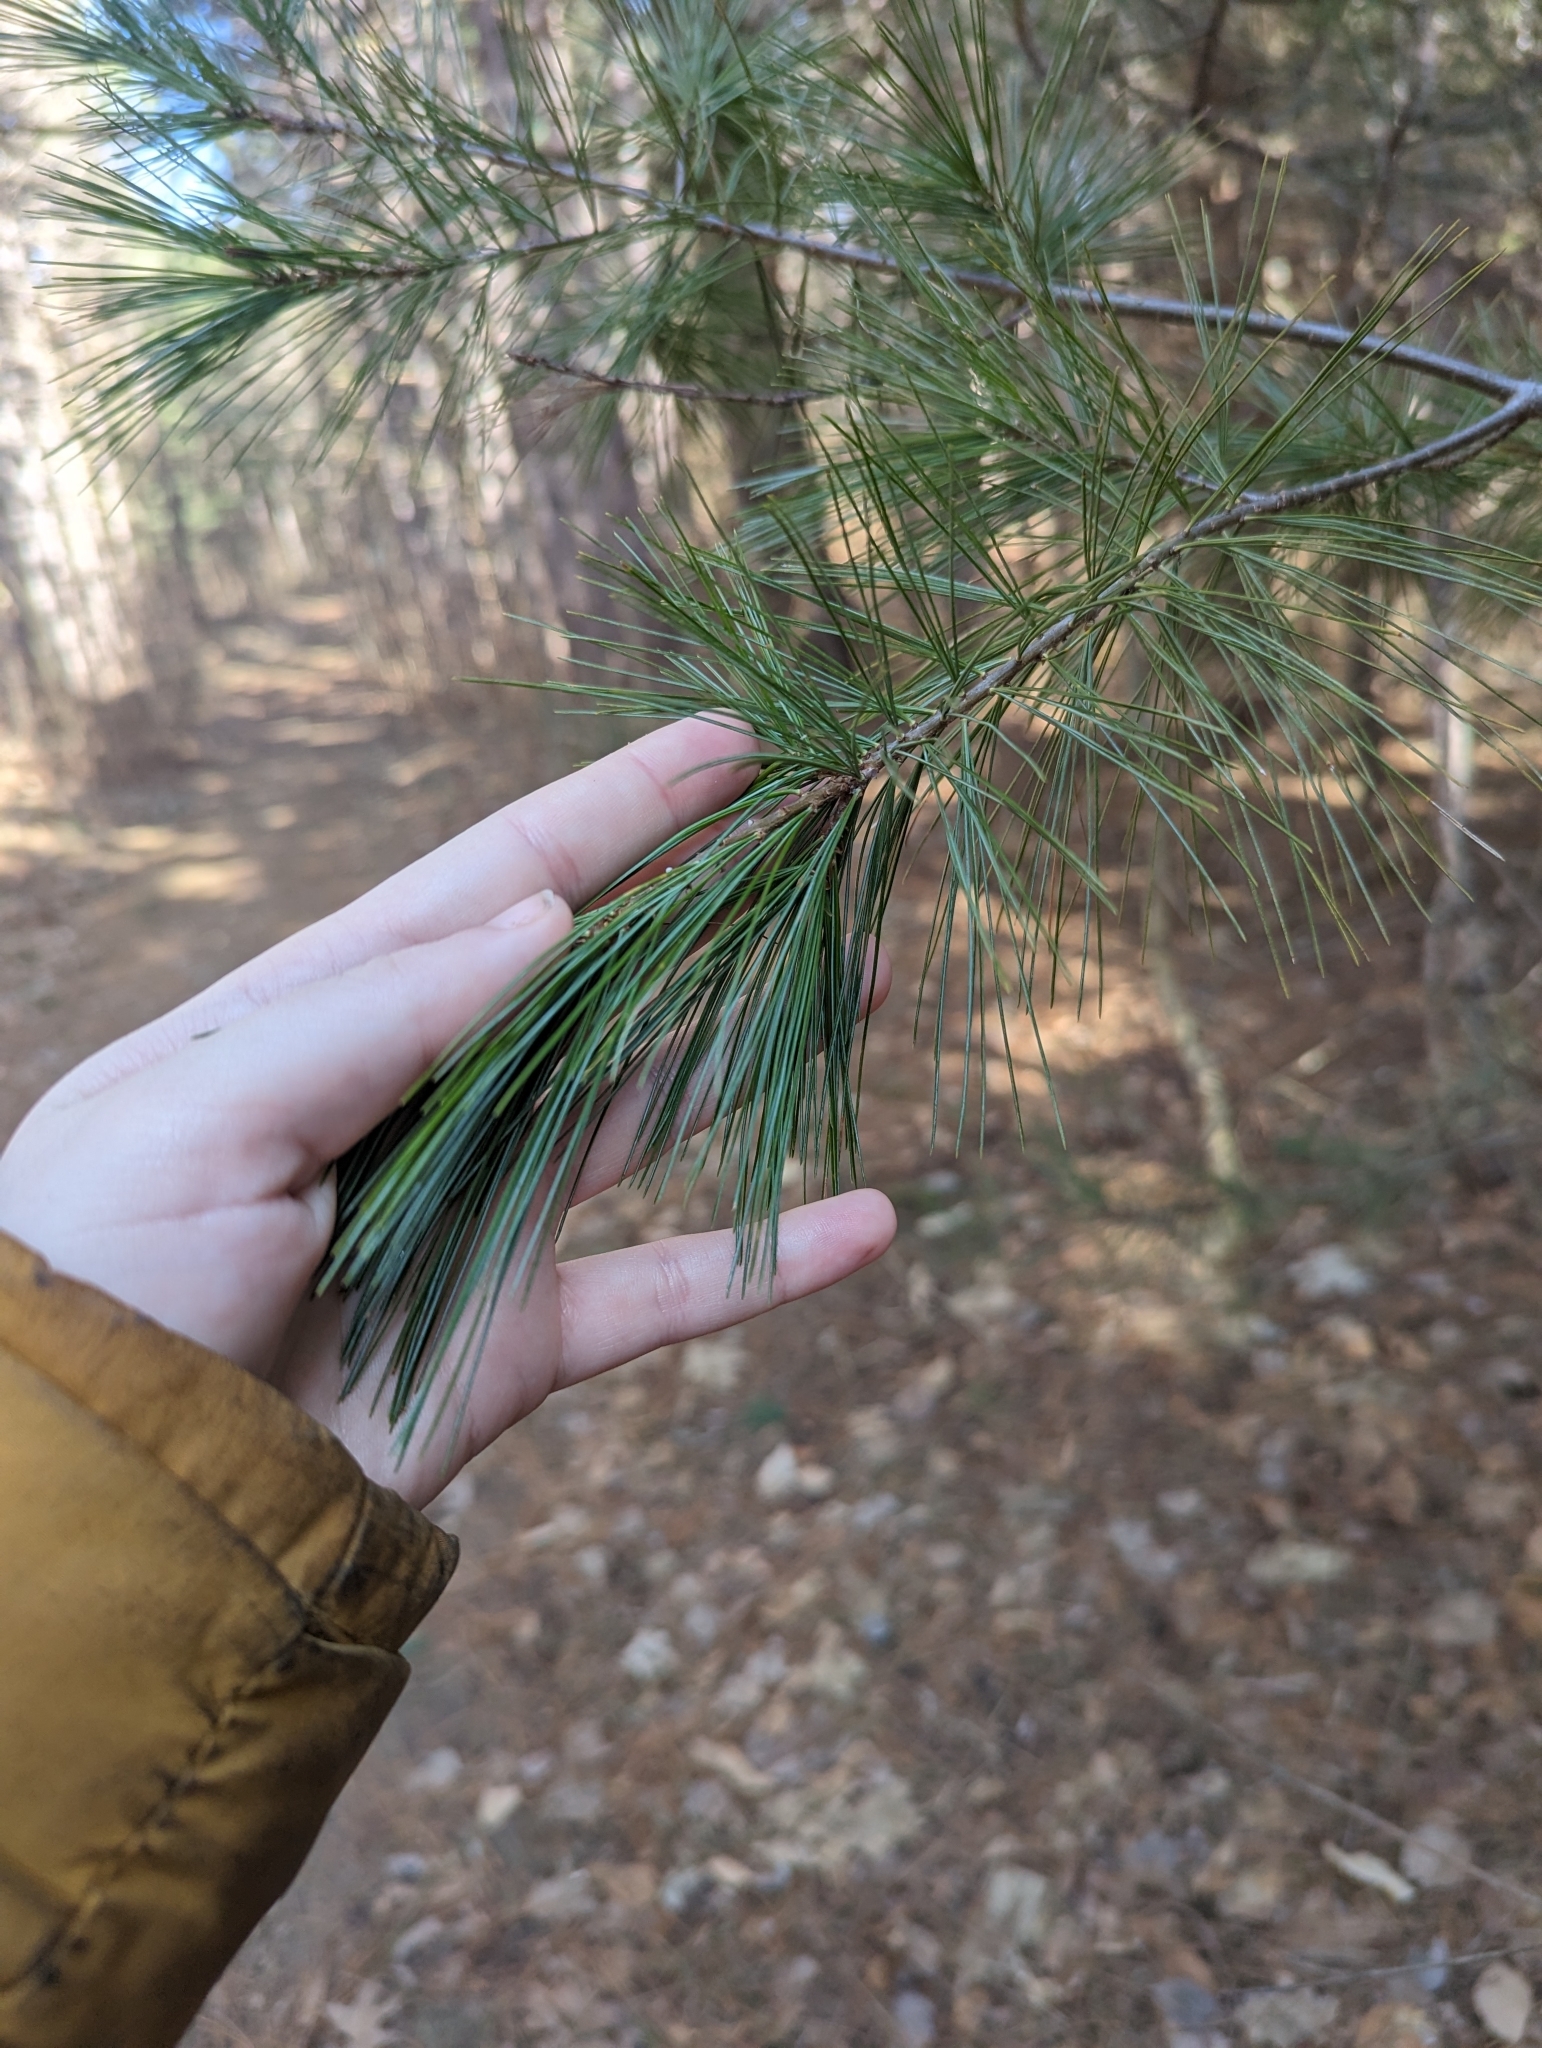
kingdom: Plantae
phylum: Tracheophyta
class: Pinopsida
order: Pinales
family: Pinaceae
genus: Pinus
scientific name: Pinus strobus
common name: Weymouth pine
